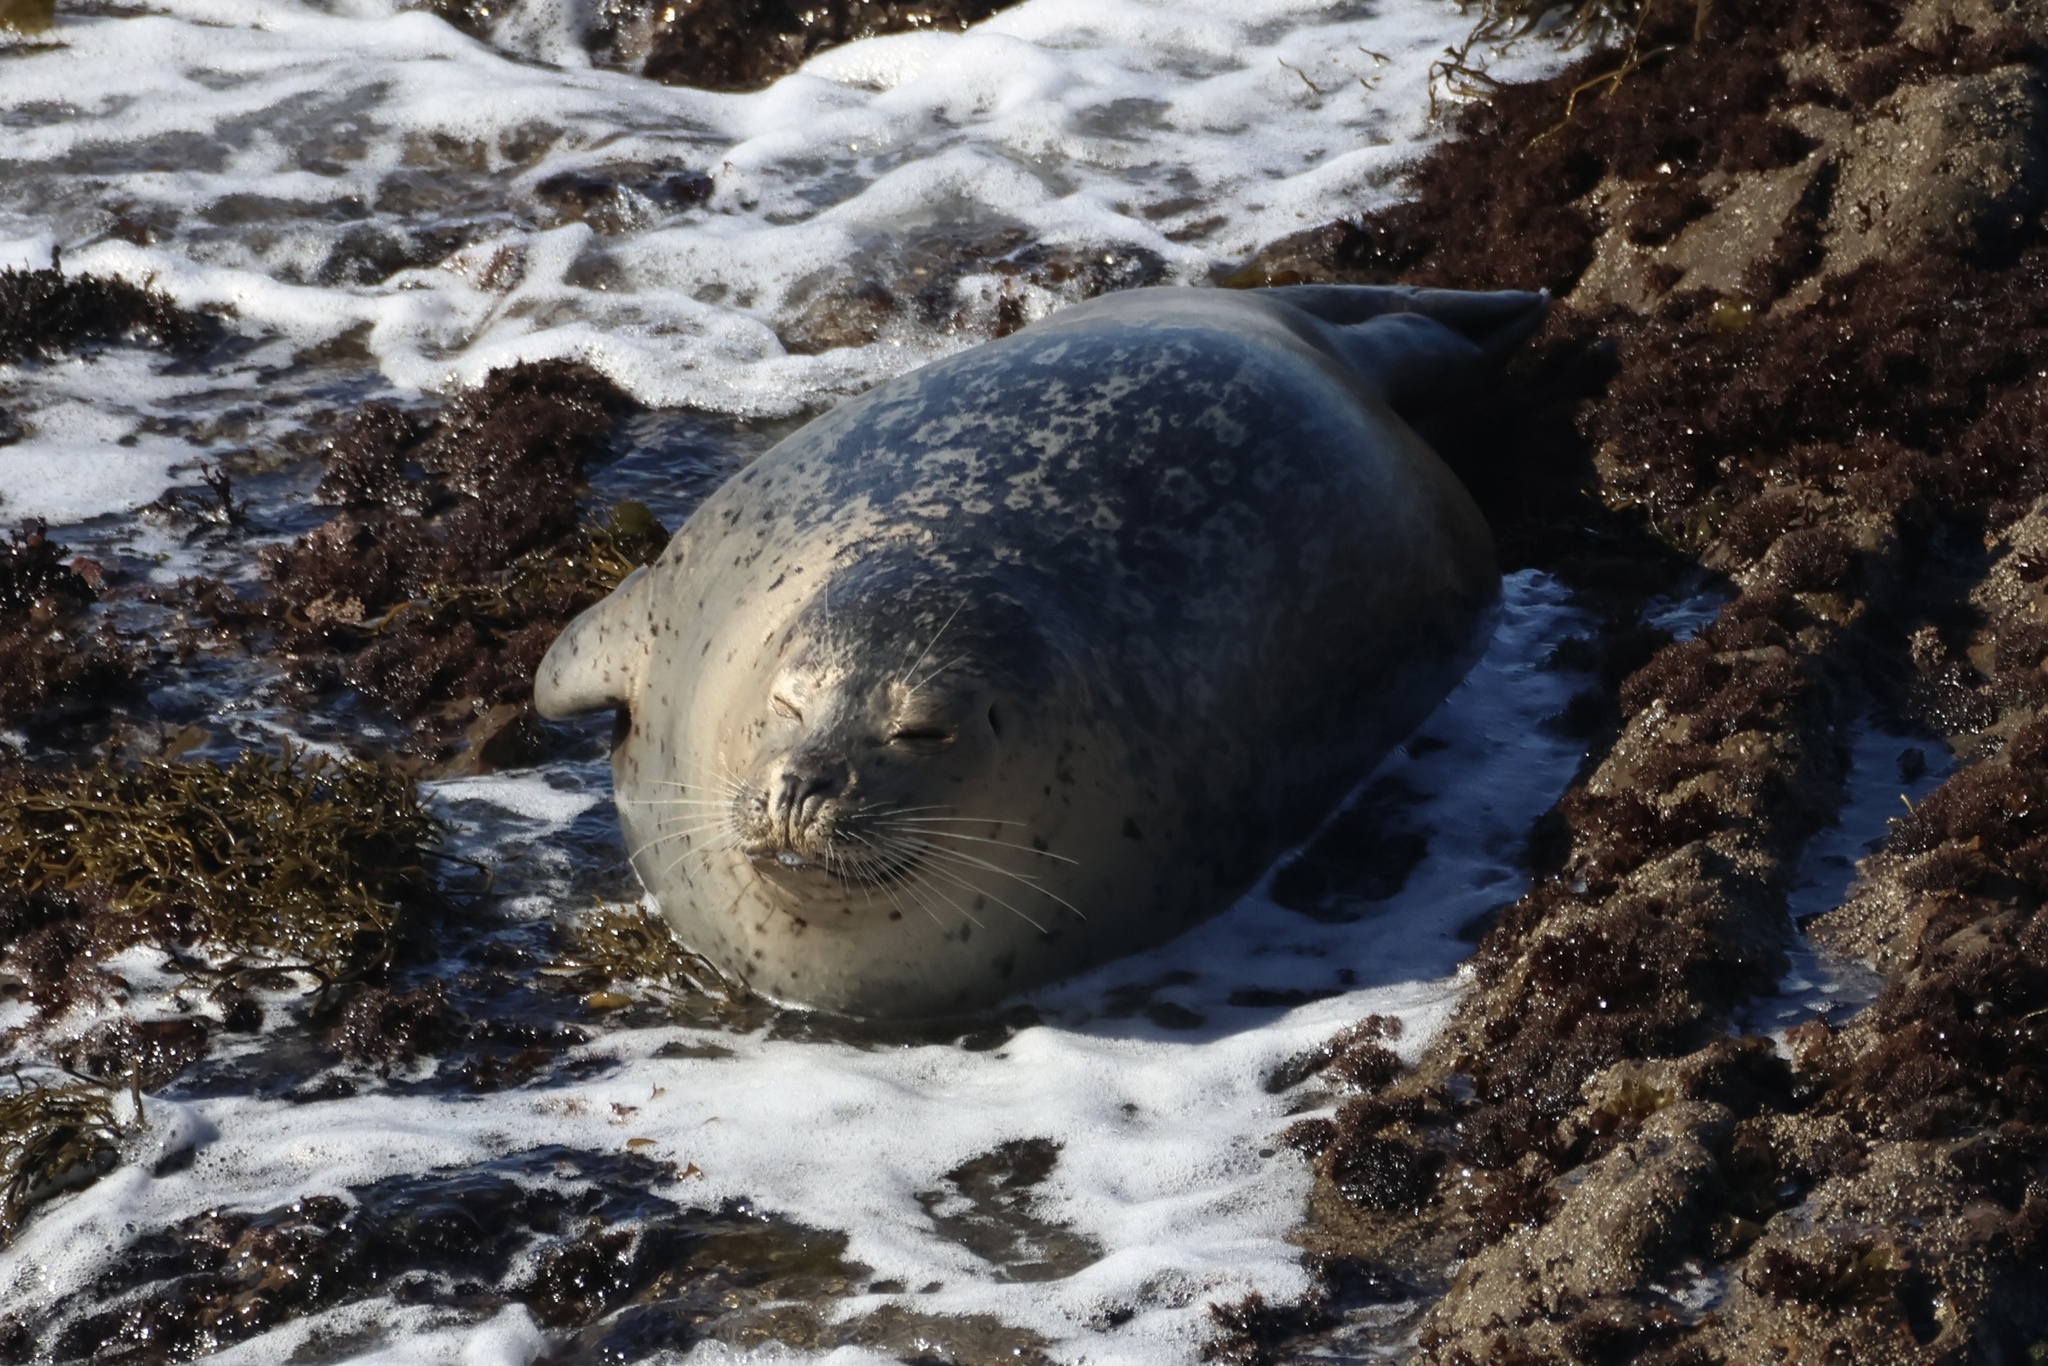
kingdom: Animalia
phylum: Chordata
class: Mammalia
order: Carnivora
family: Phocidae
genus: Phoca
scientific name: Phoca vitulina
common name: Harbor seal
